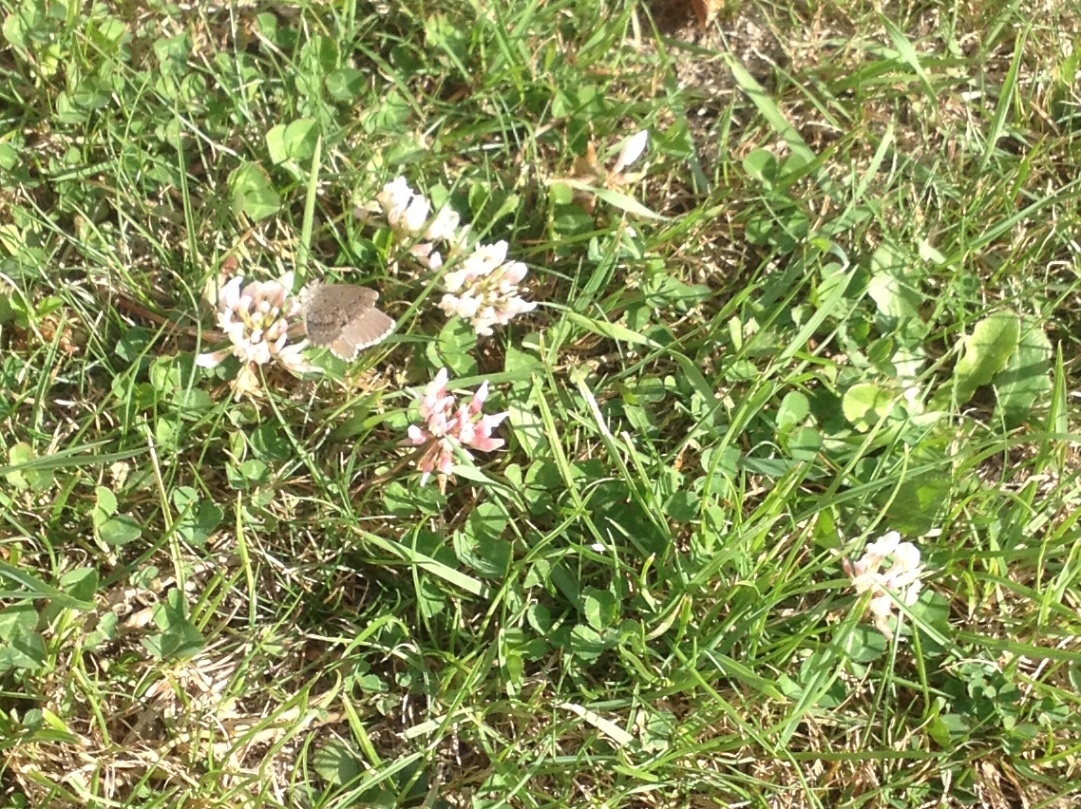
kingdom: Animalia
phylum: Arthropoda
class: Insecta
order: Lepidoptera
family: Lycaenidae
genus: Zizina
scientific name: Zizina oxleyi
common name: Southern blue
